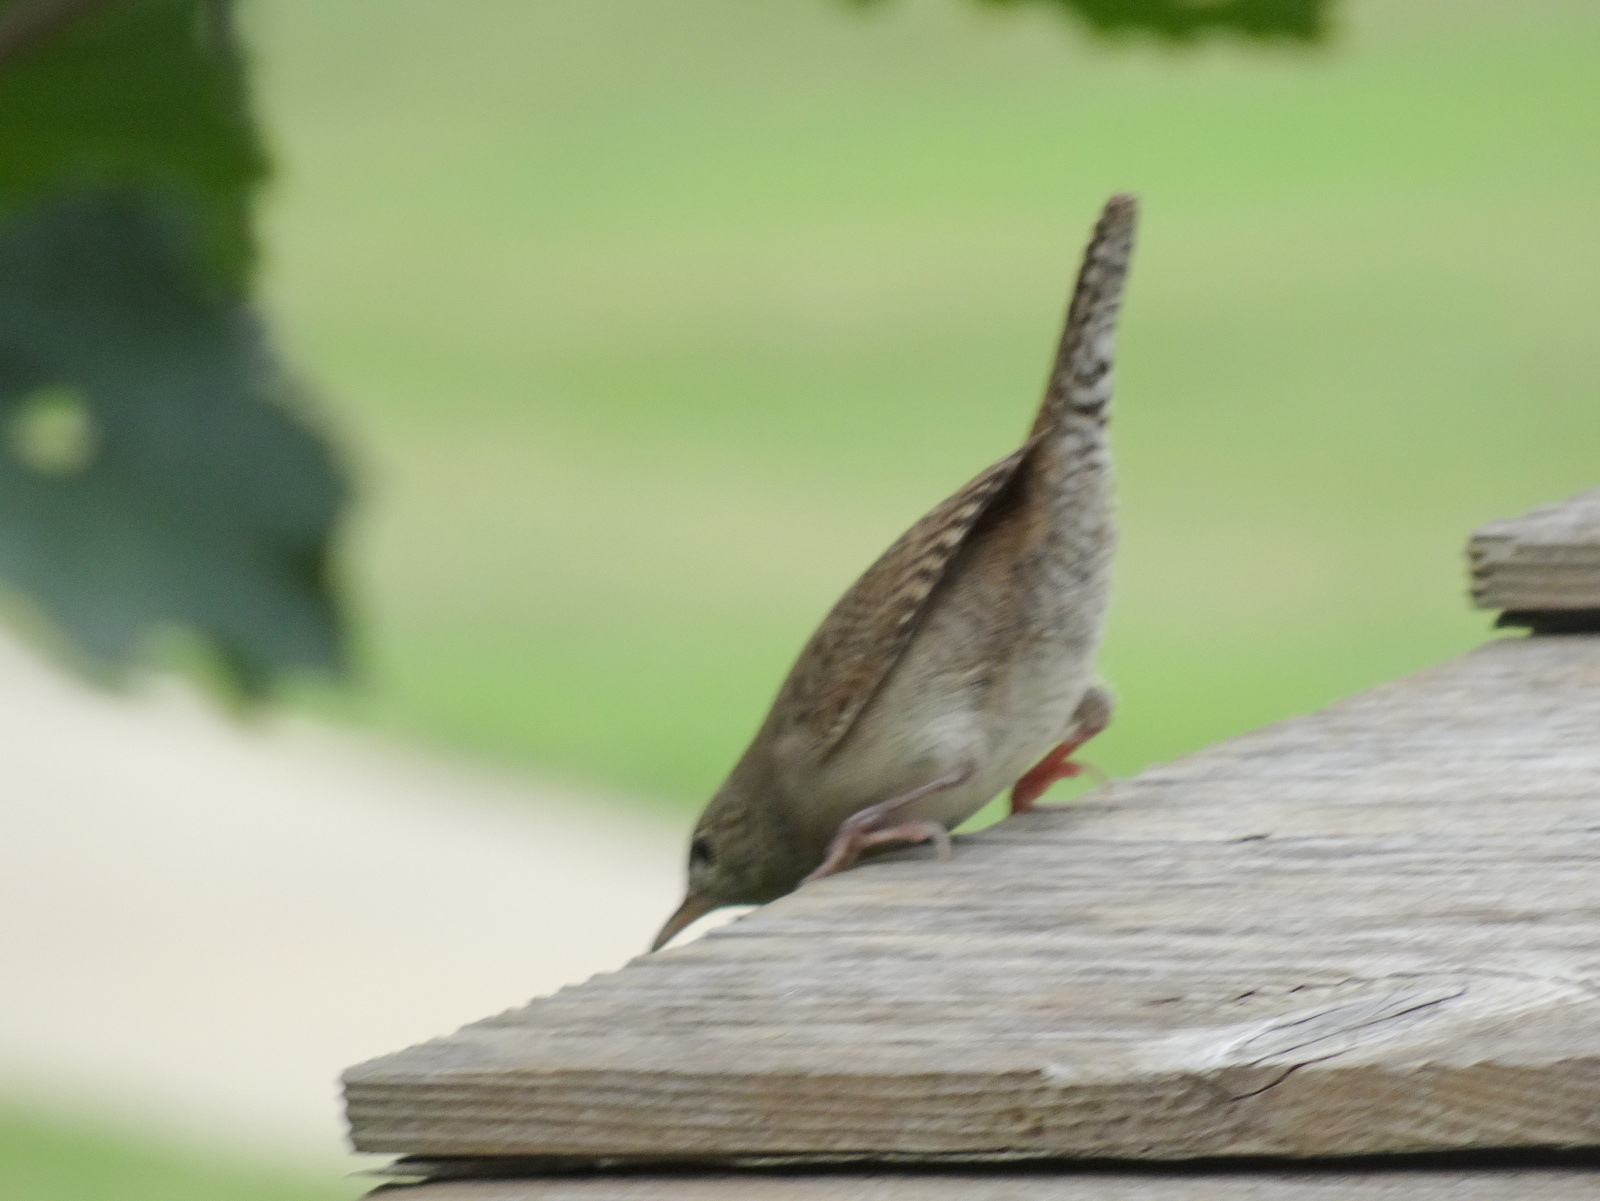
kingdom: Animalia
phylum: Chordata
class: Aves
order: Passeriformes
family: Troglodytidae
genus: Troglodytes
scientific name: Troglodytes aedon
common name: House wren
